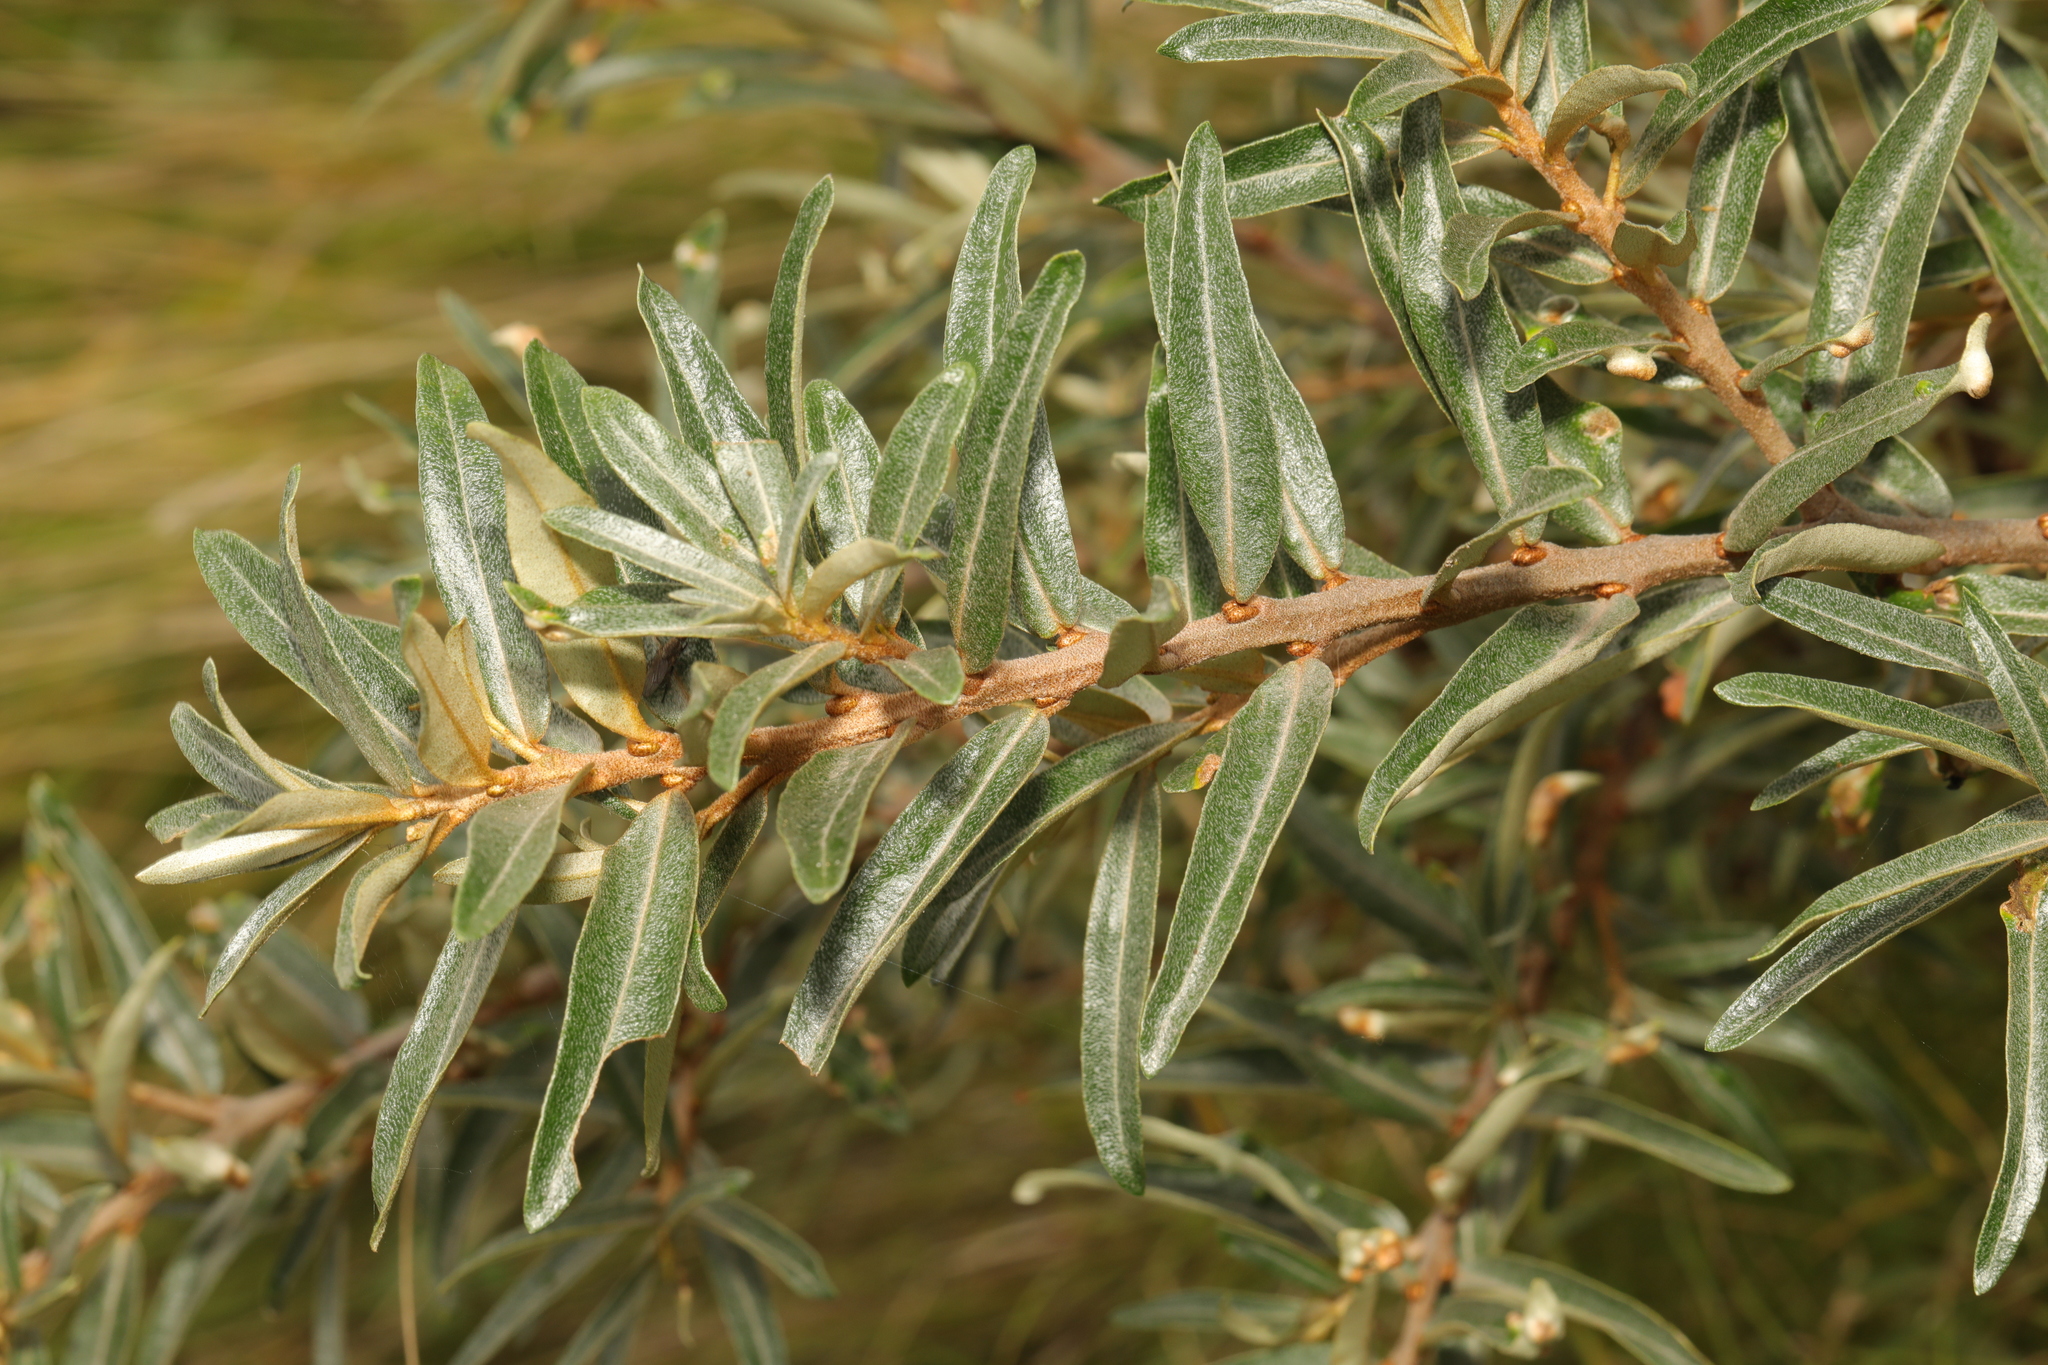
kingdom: Plantae
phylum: Tracheophyta
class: Magnoliopsida
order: Rosales
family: Elaeagnaceae
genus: Hippophae
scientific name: Hippophae rhamnoides
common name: Sea-buckthorn
